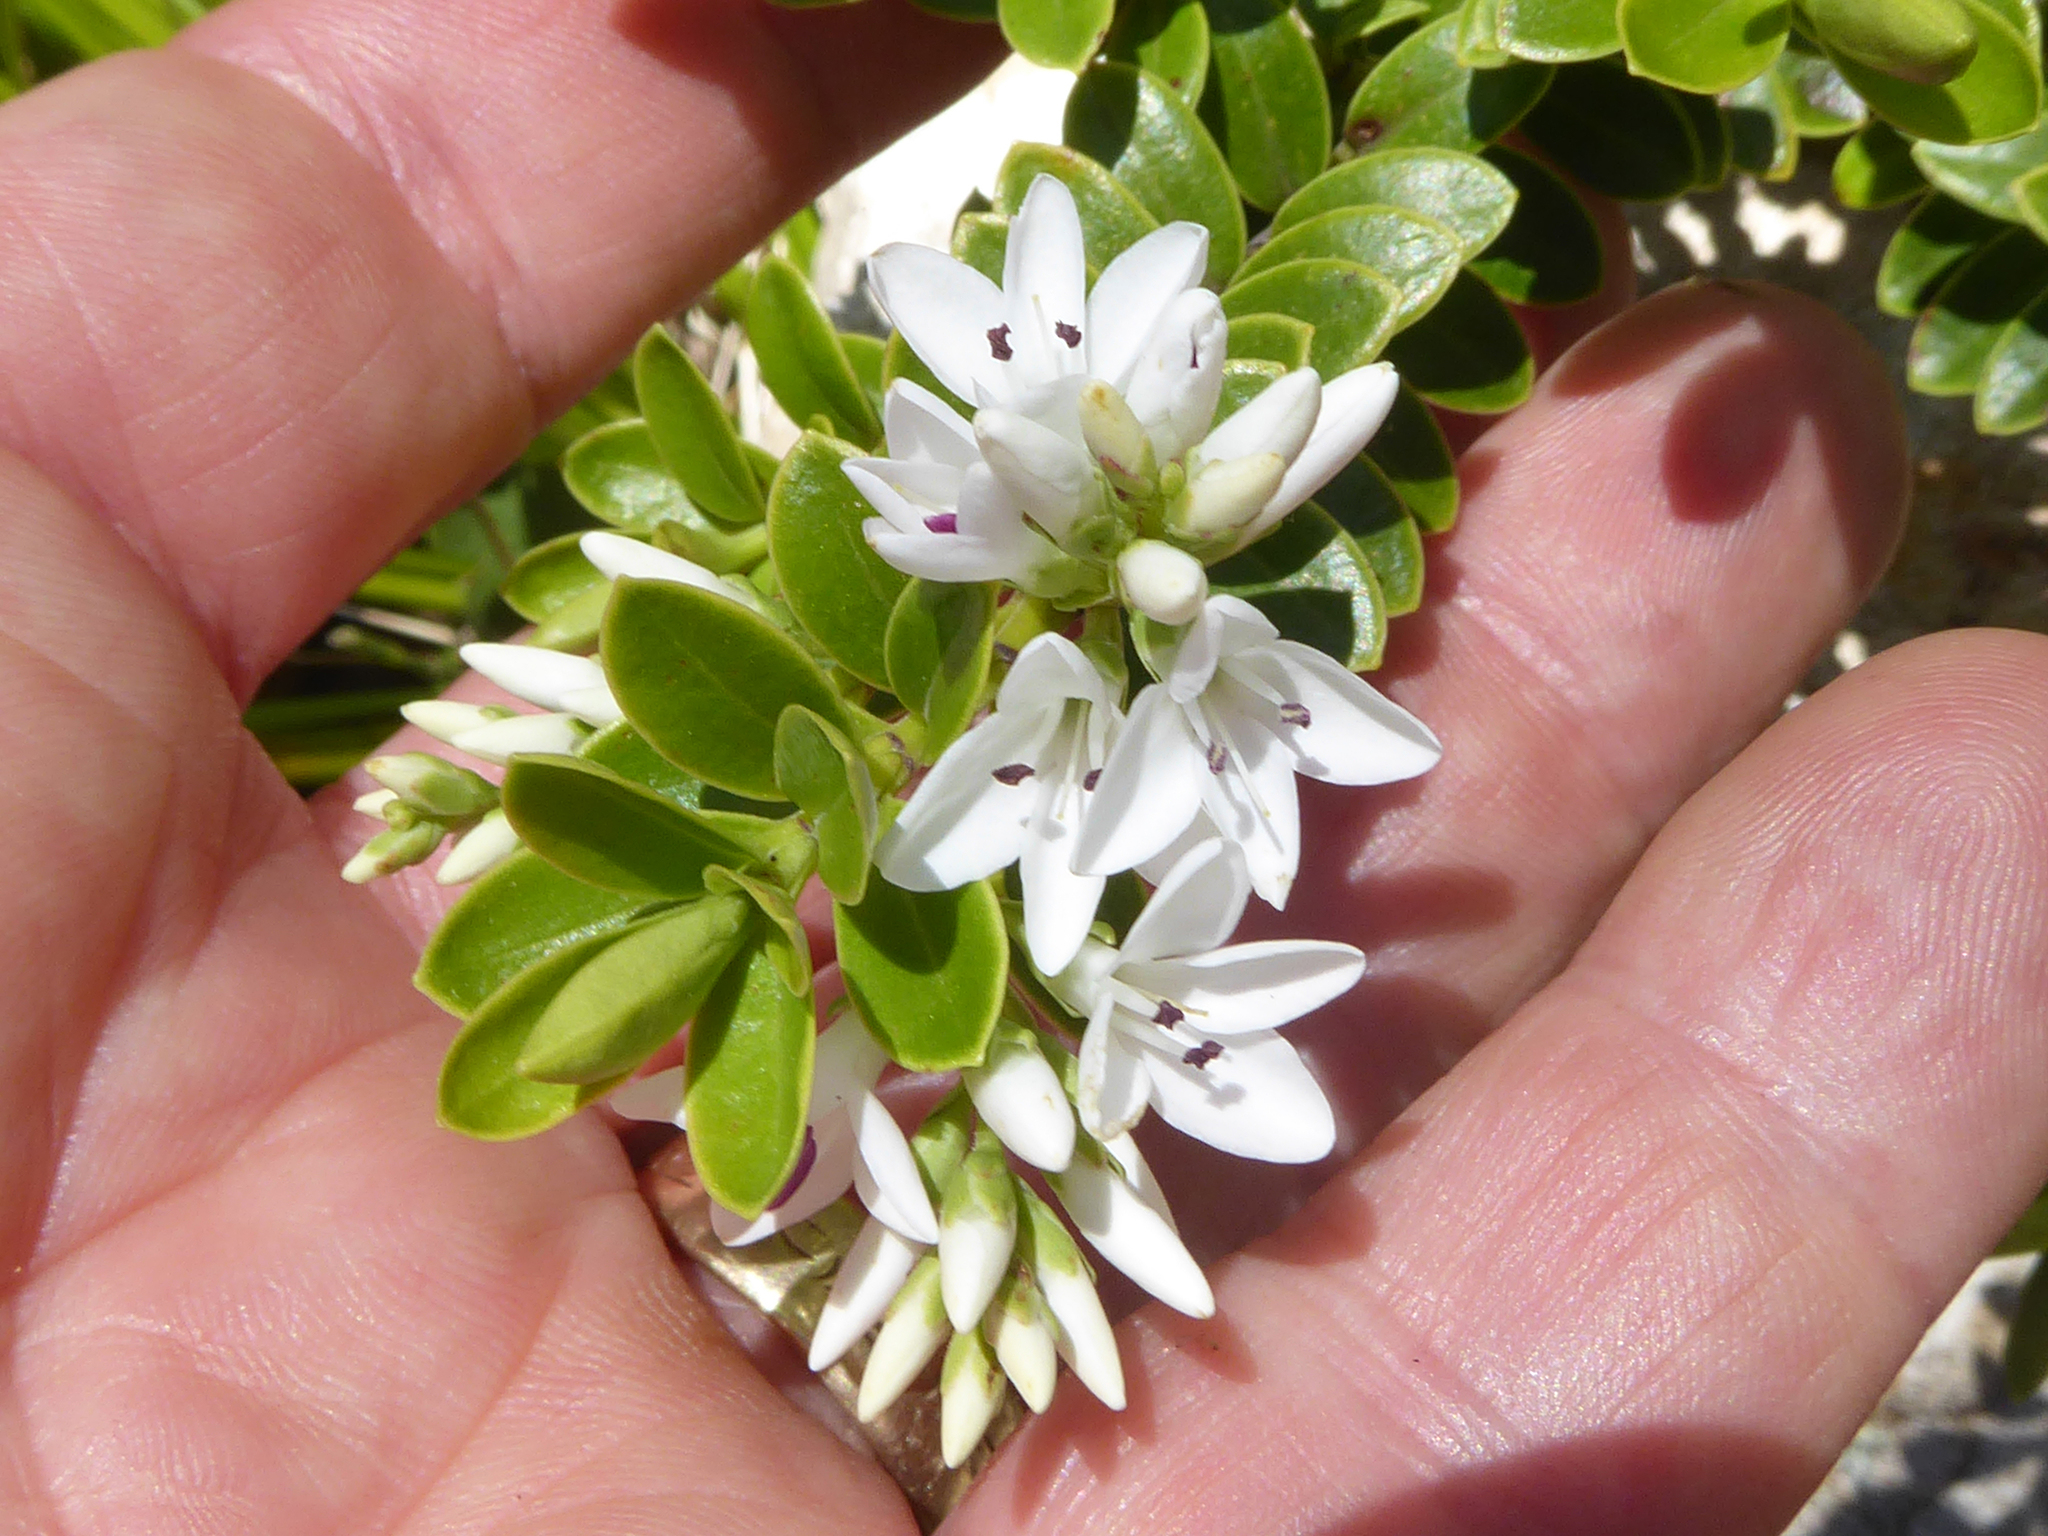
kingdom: Plantae
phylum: Tracheophyta
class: Magnoliopsida
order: Lamiales
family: Plantaginaceae
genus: Veronica
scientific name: Veronica canterburiensis
